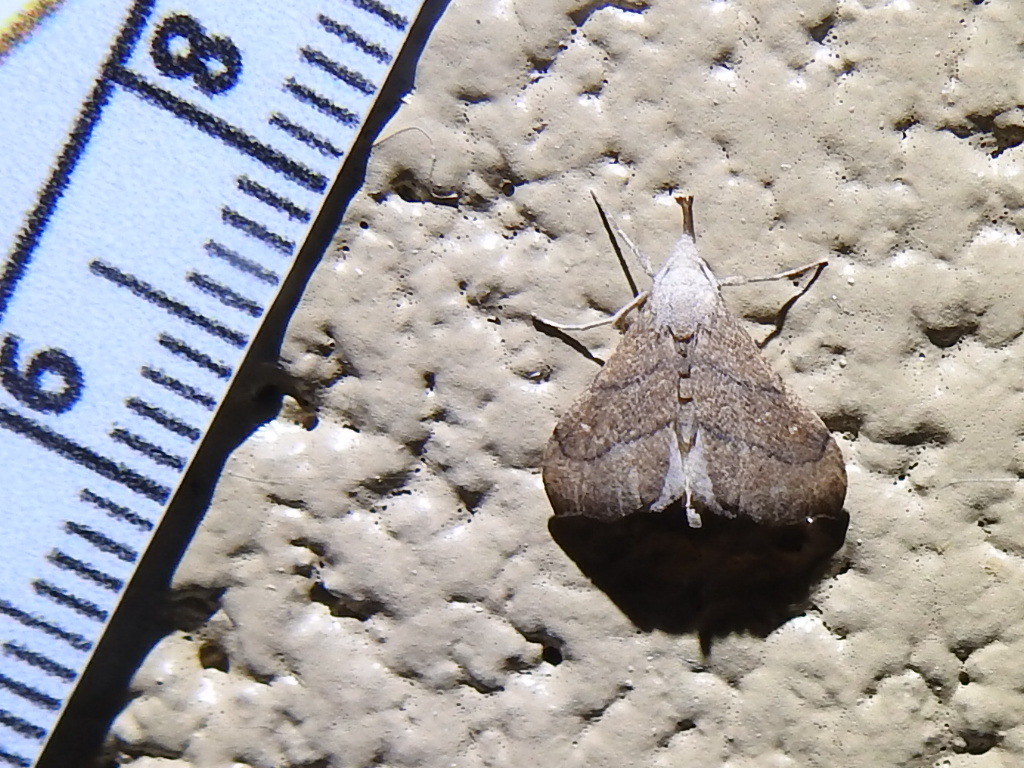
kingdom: Animalia
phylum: Arthropoda
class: Insecta
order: Lepidoptera
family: Erebidae
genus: Macristis
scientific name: Macristis schausi
